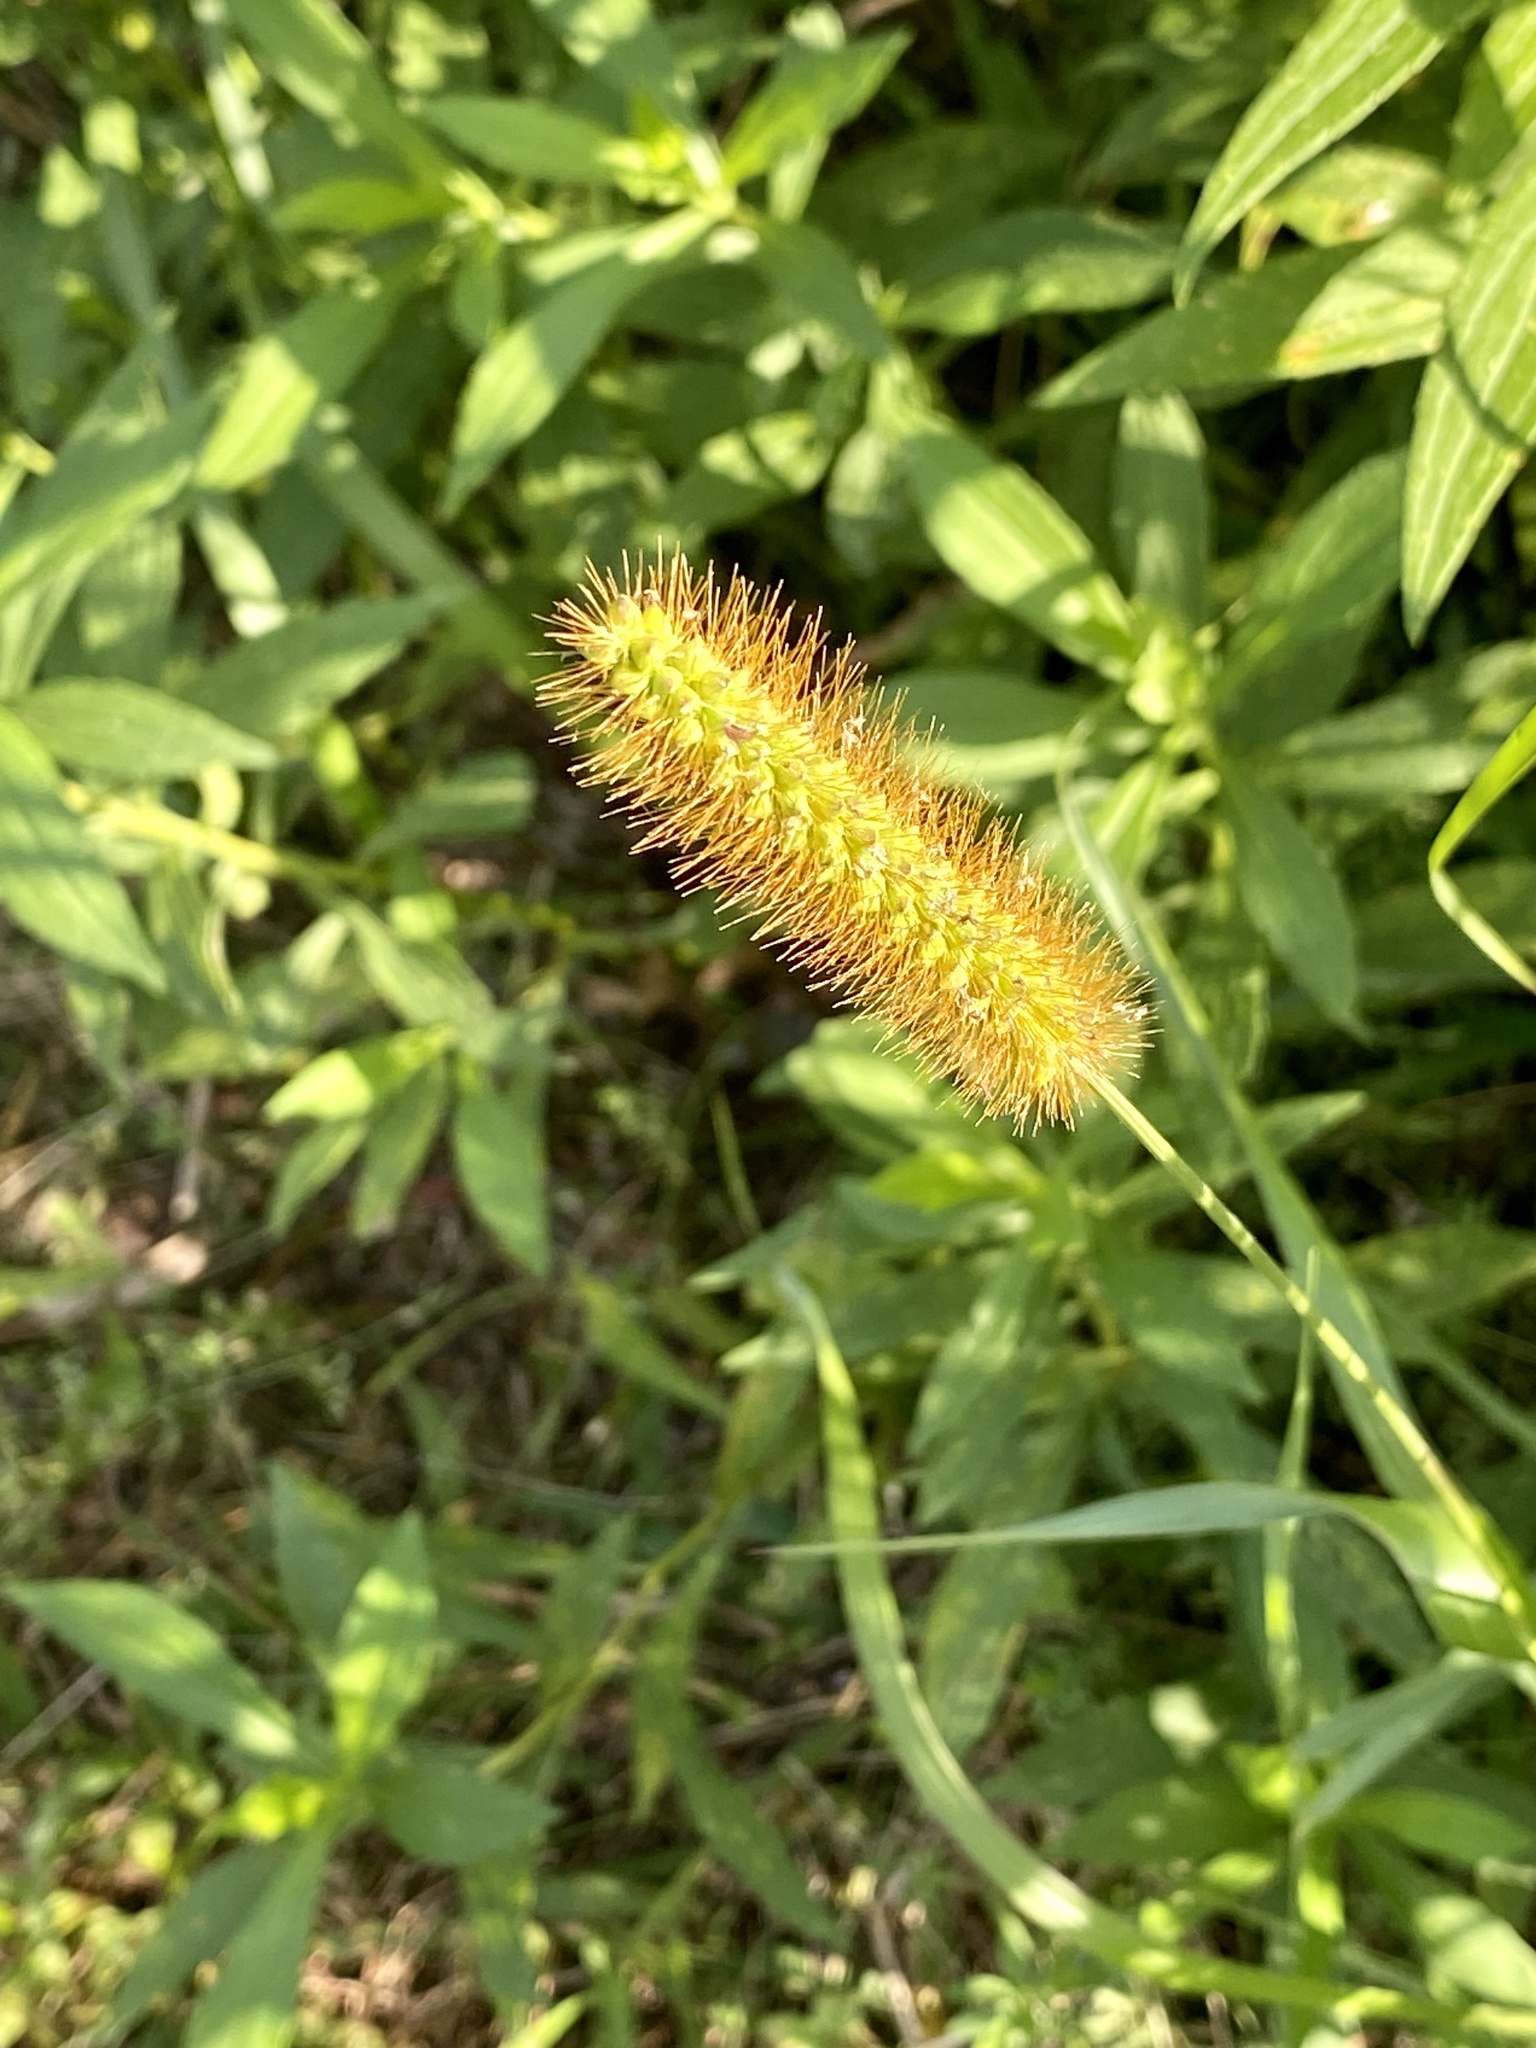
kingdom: Plantae
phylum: Tracheophyta
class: Liliopsida
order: Poales
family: Poaceae
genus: Setaria
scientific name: Setaria pumila
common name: Yellow bristle-grass
